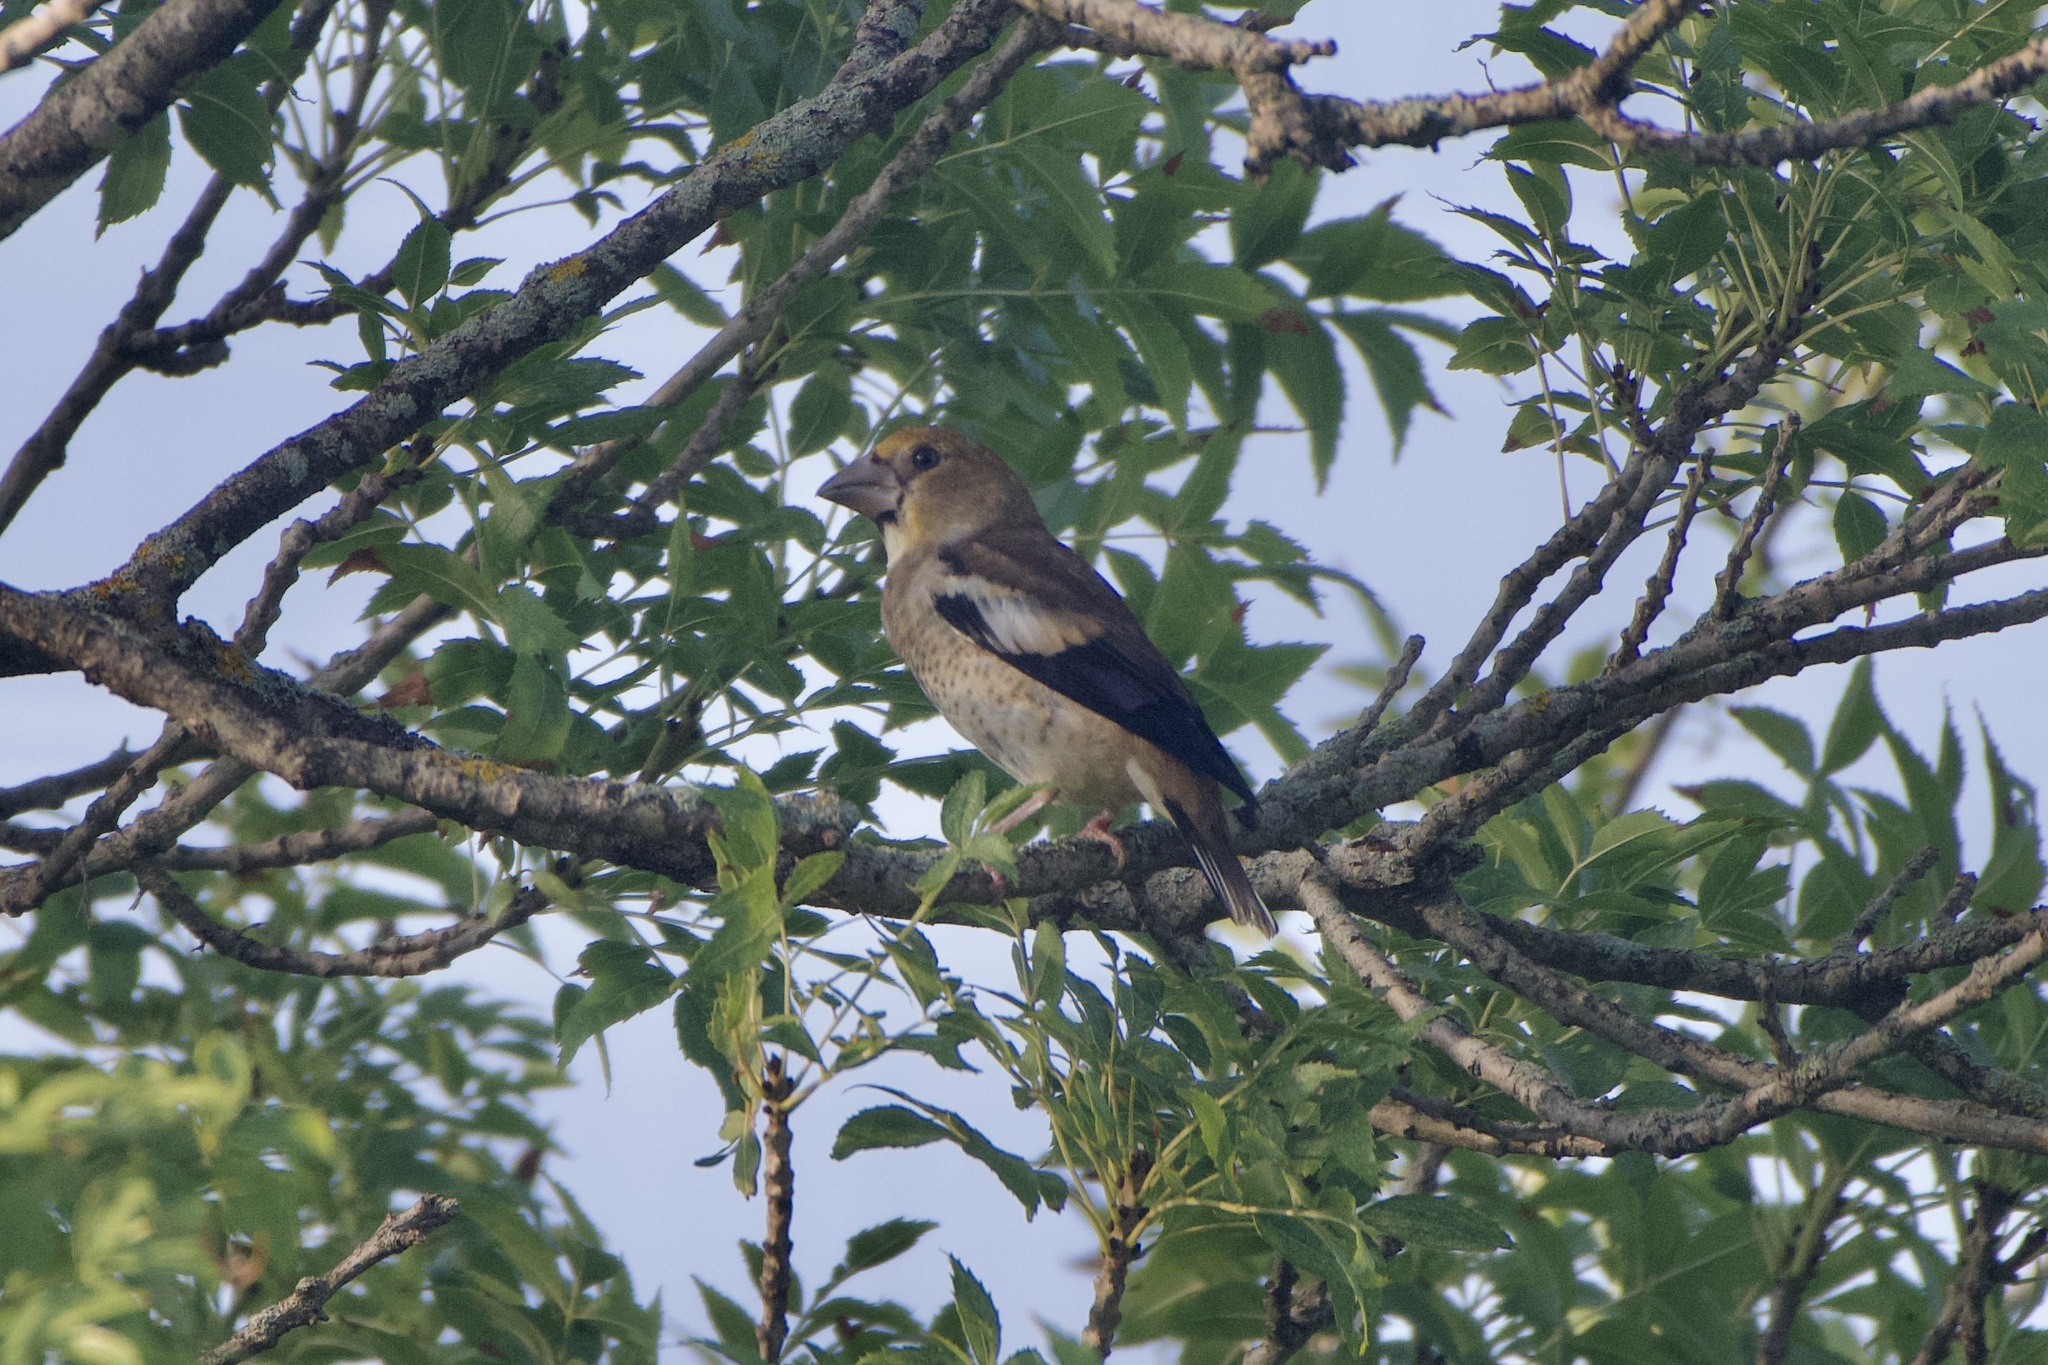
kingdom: Animalia
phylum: Chordata
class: Aves
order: Passeriformes
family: Fringillidae
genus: Coccothraustes
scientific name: Coccothraustes coccothraustes
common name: Hawfinch
